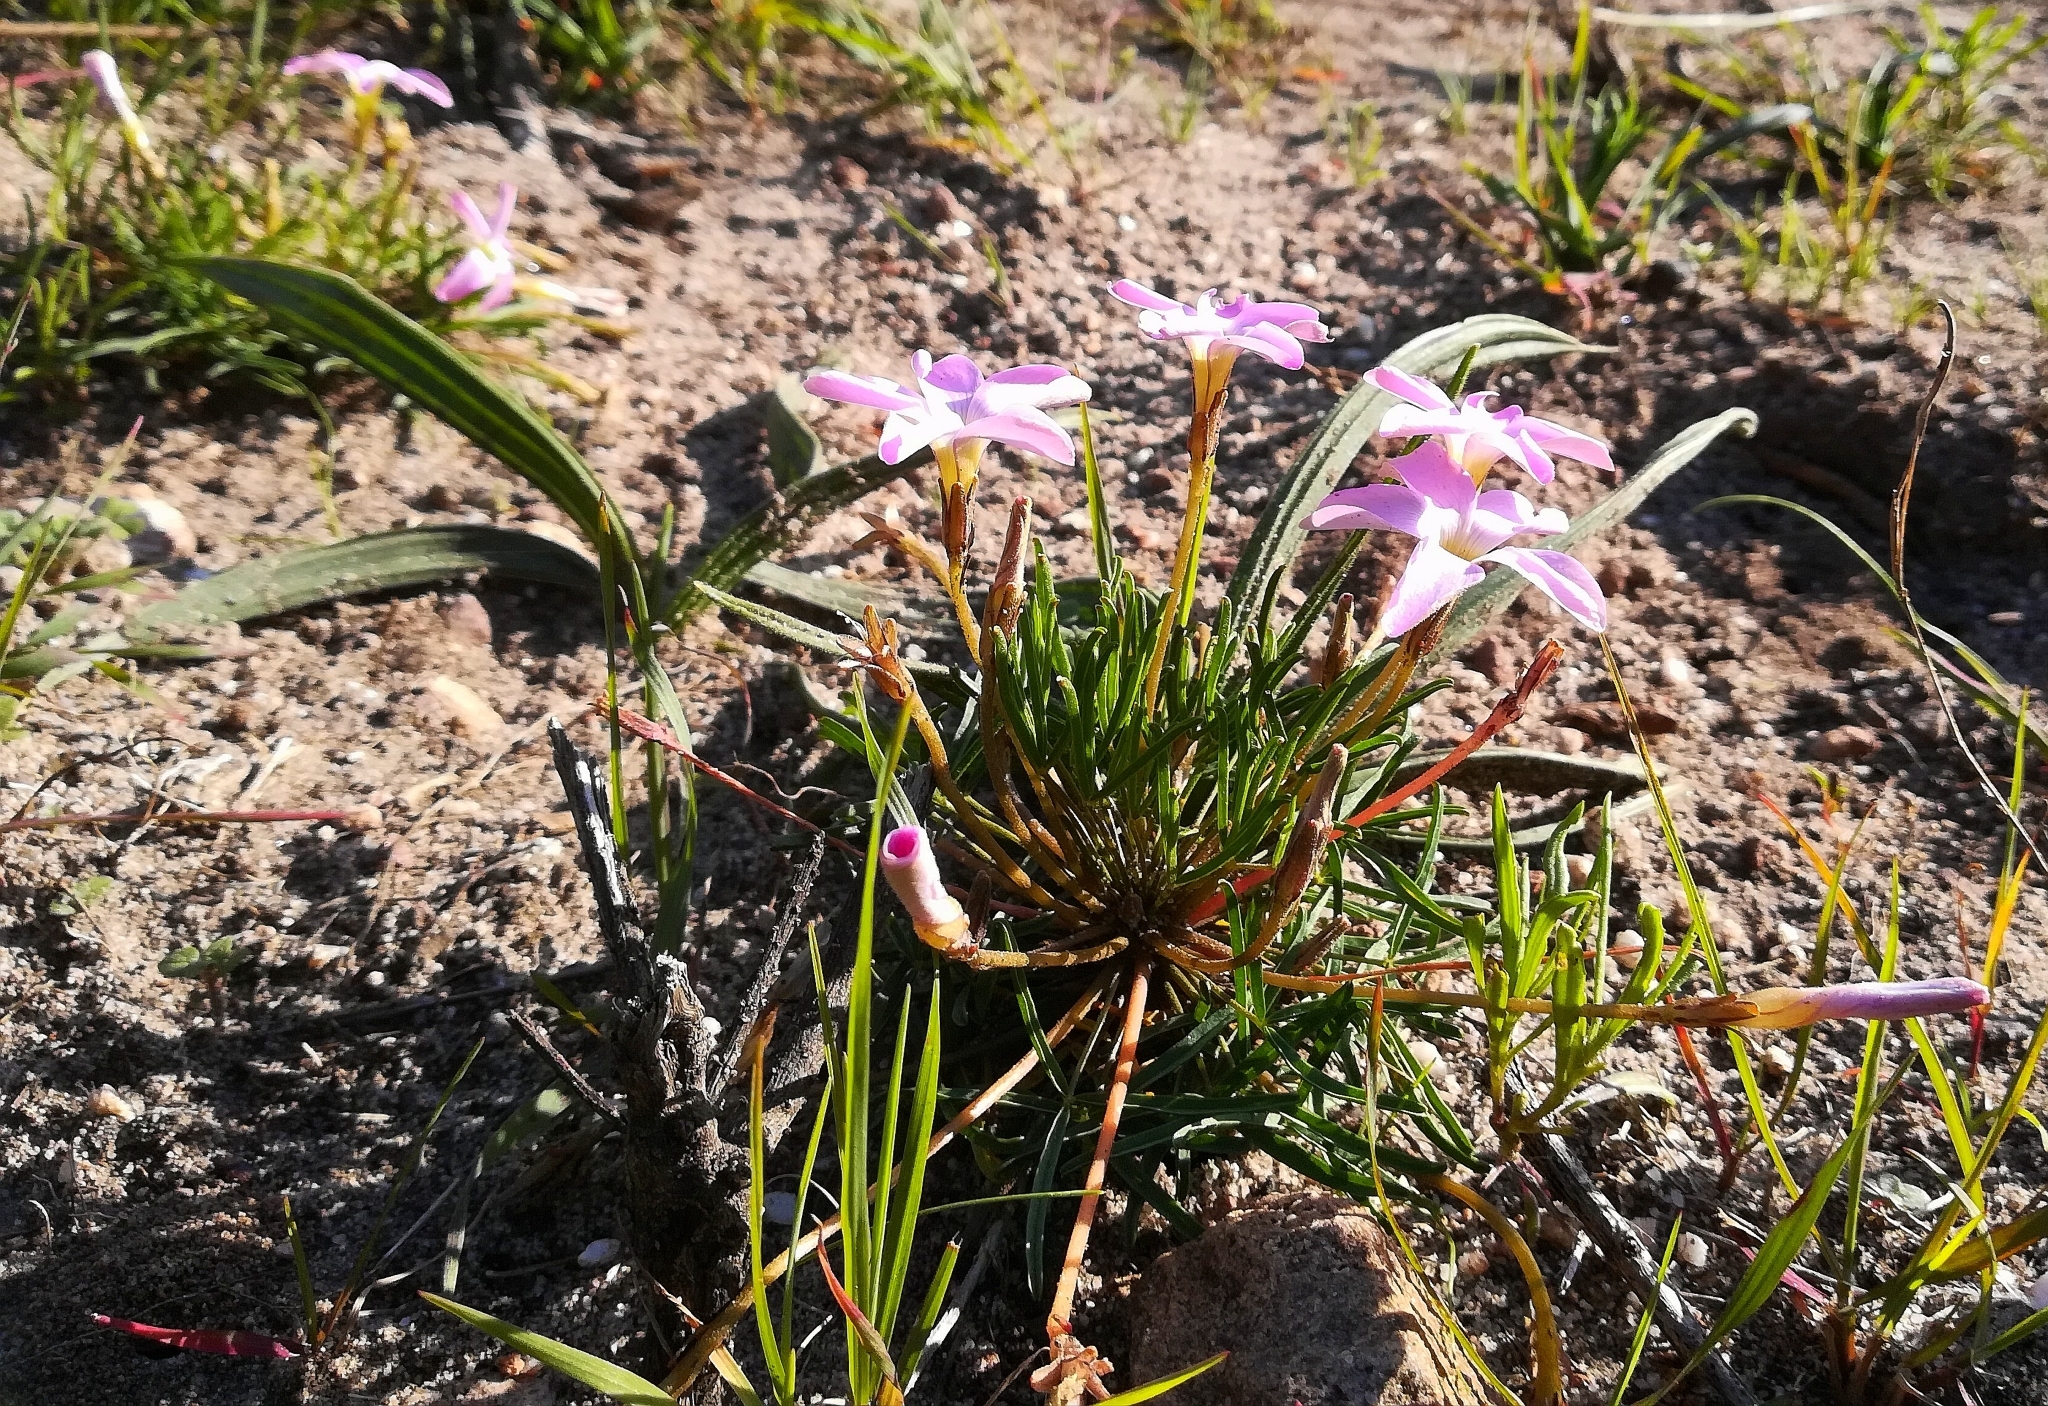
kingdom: Plantae
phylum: Tracheophyta
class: Magnoliopsida
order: Oxalidales
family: Oxalidaceae
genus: Oxalis
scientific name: Oxalis polyphylla
